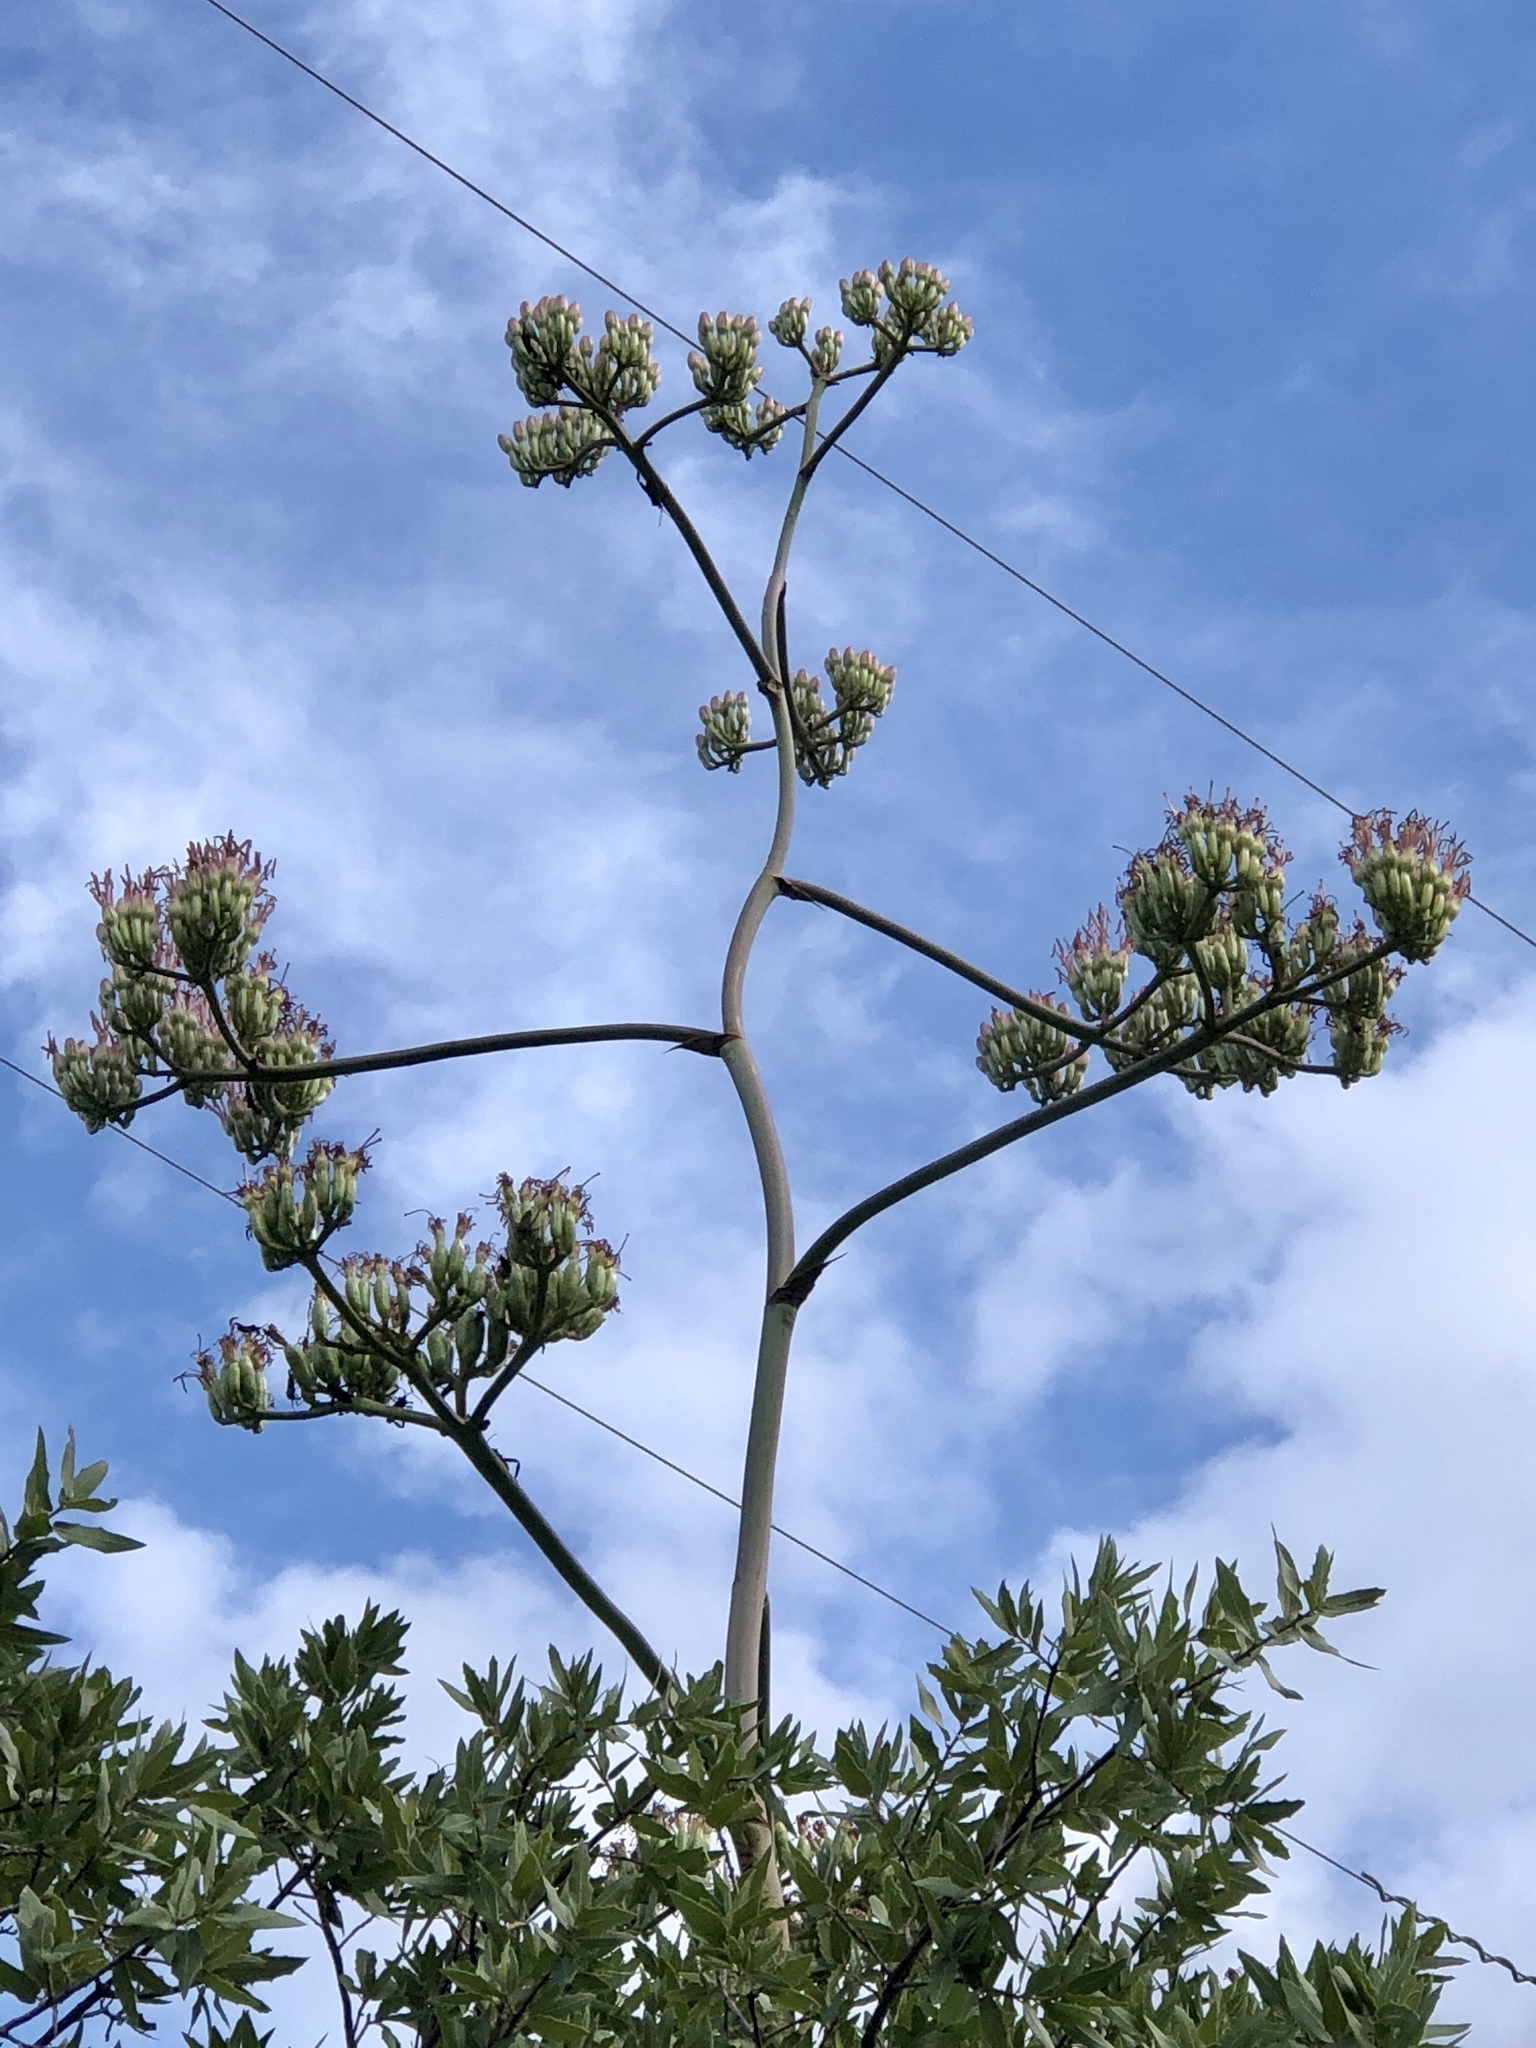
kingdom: Plantae
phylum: Tracheophyta
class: Liliopsida
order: Asparagales
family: Asparagaceae
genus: Agave
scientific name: Agave palmeri
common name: Palmer agave
